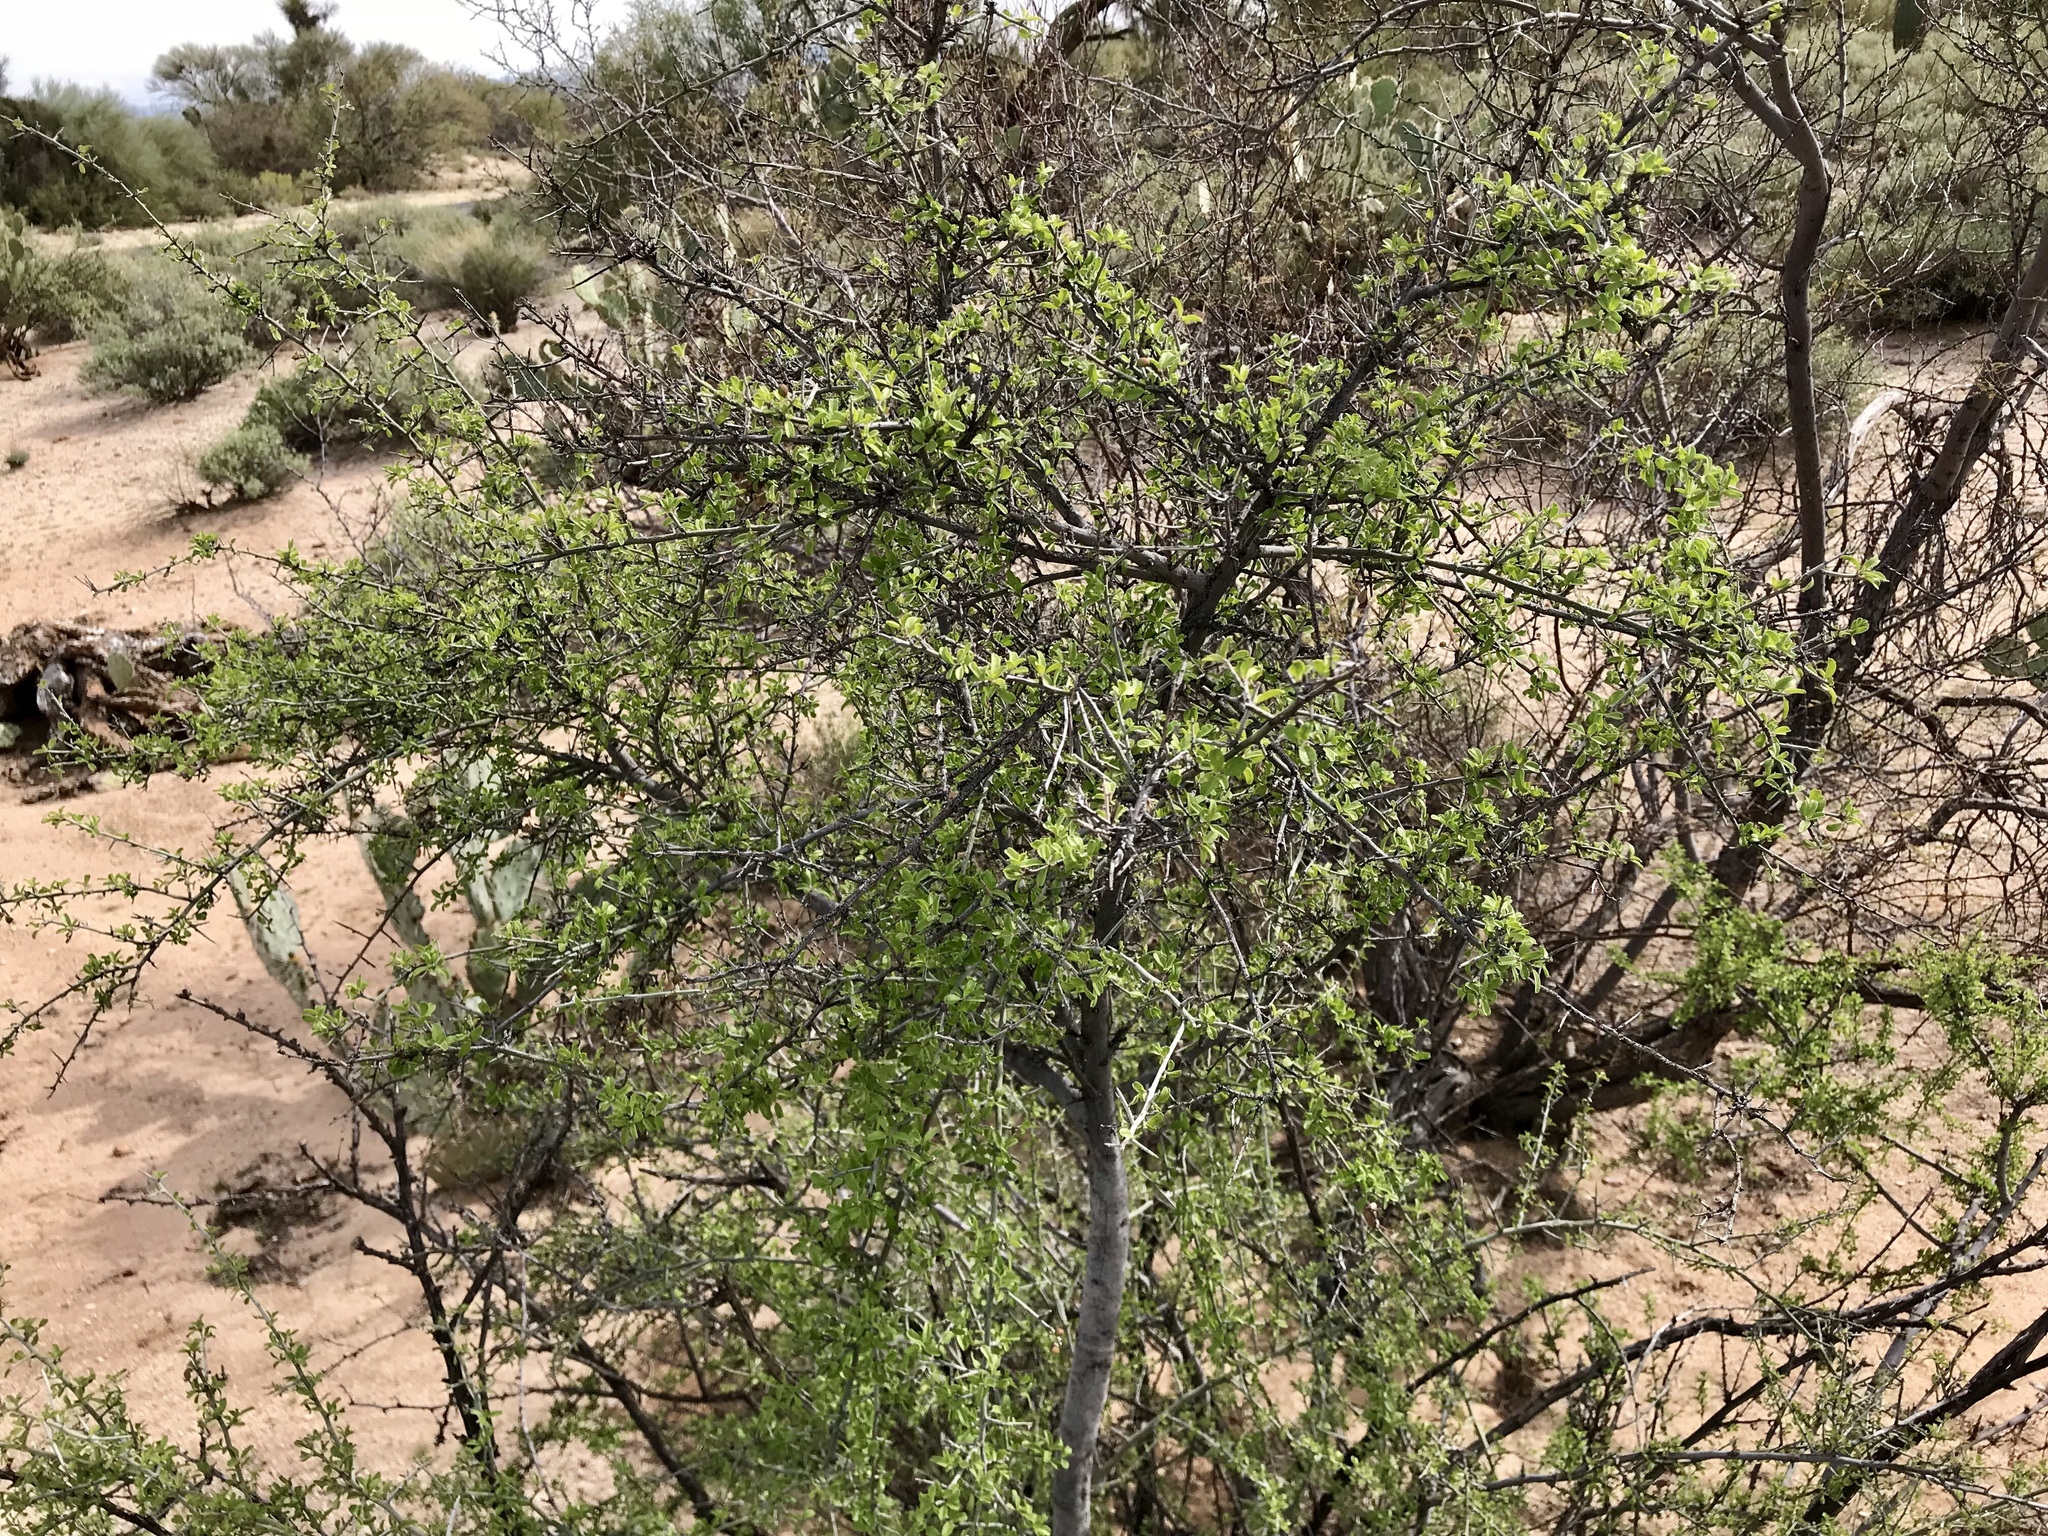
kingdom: Plantae
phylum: Tracheophyta
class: Magnoliopsida
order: Rosales
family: Rhamnaceae
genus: Sarcomphalus
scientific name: Sarcomphalus obtusifolius
